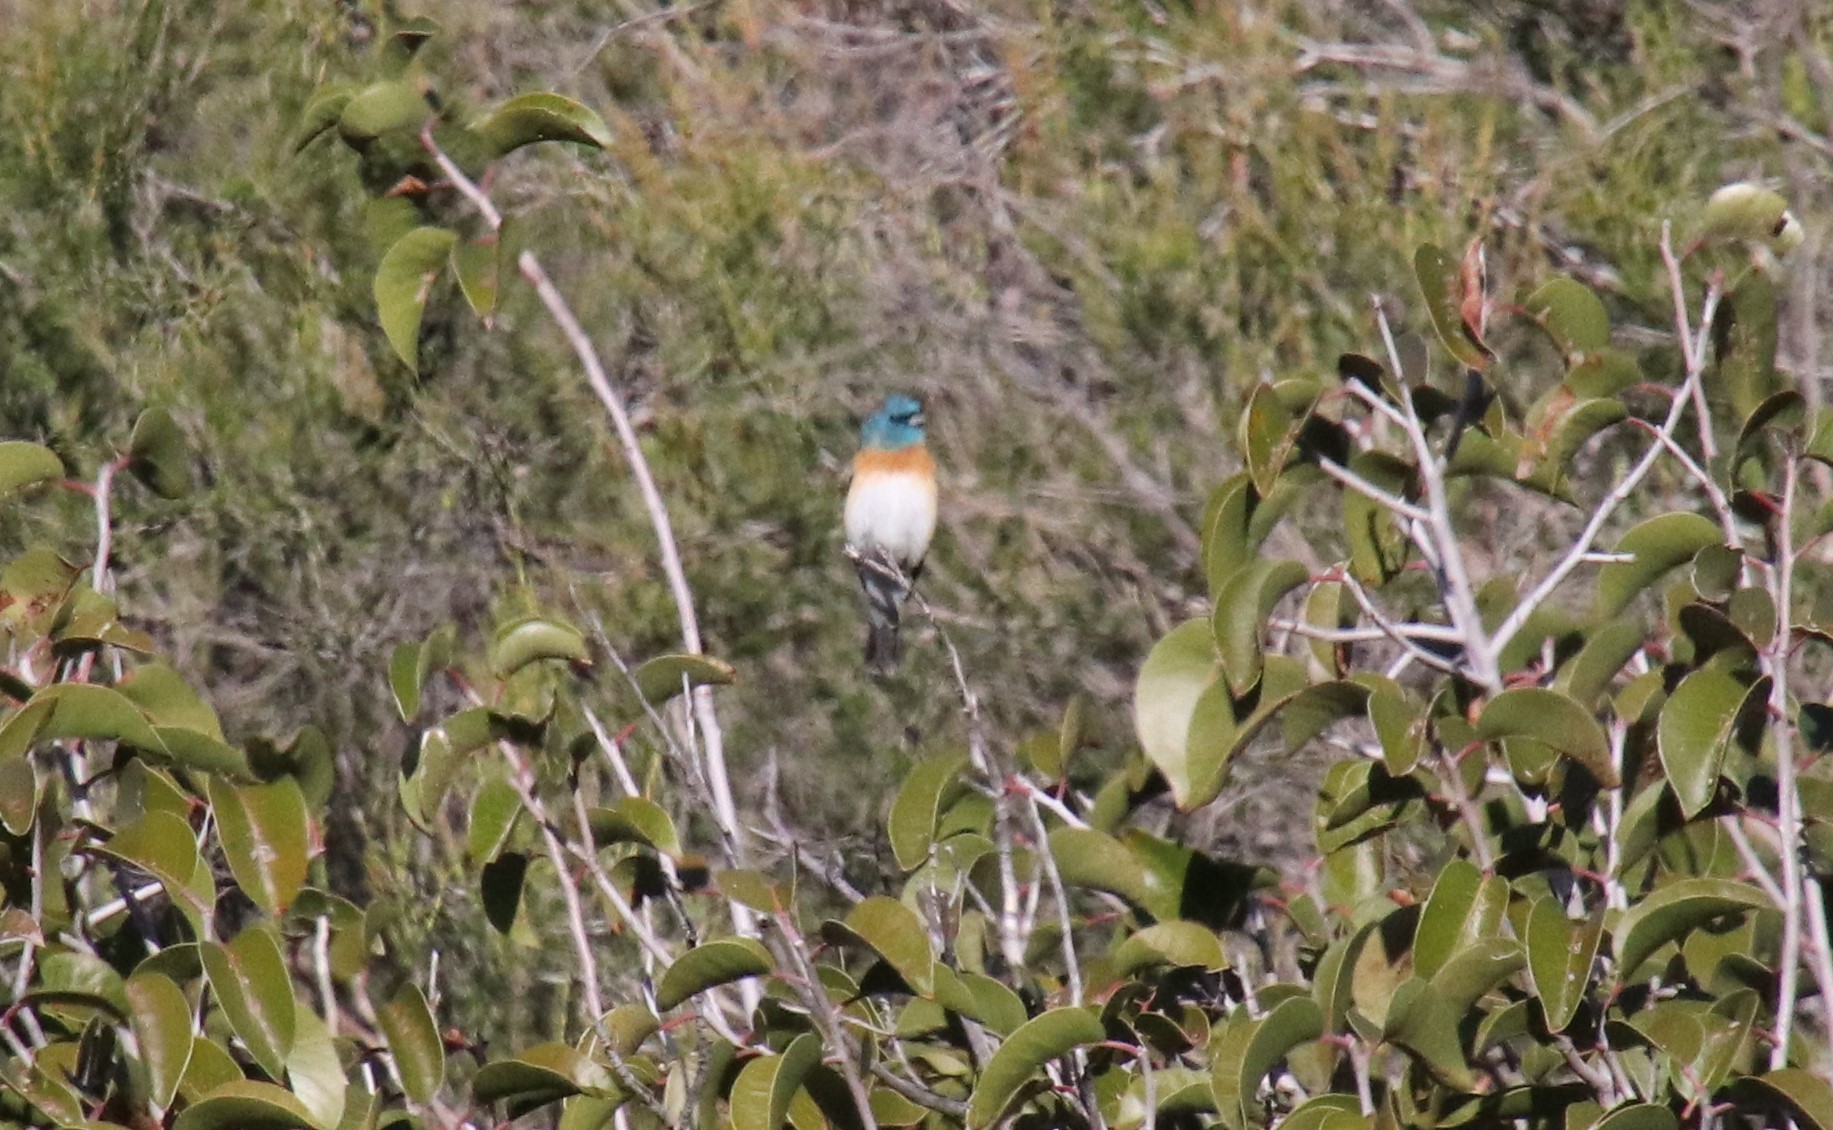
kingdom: Animalia
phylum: Chordata
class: Aves
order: Passeriformes
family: Cardinalidae
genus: Passerina
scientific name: Passerina amoena
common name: Lazuli bunting
